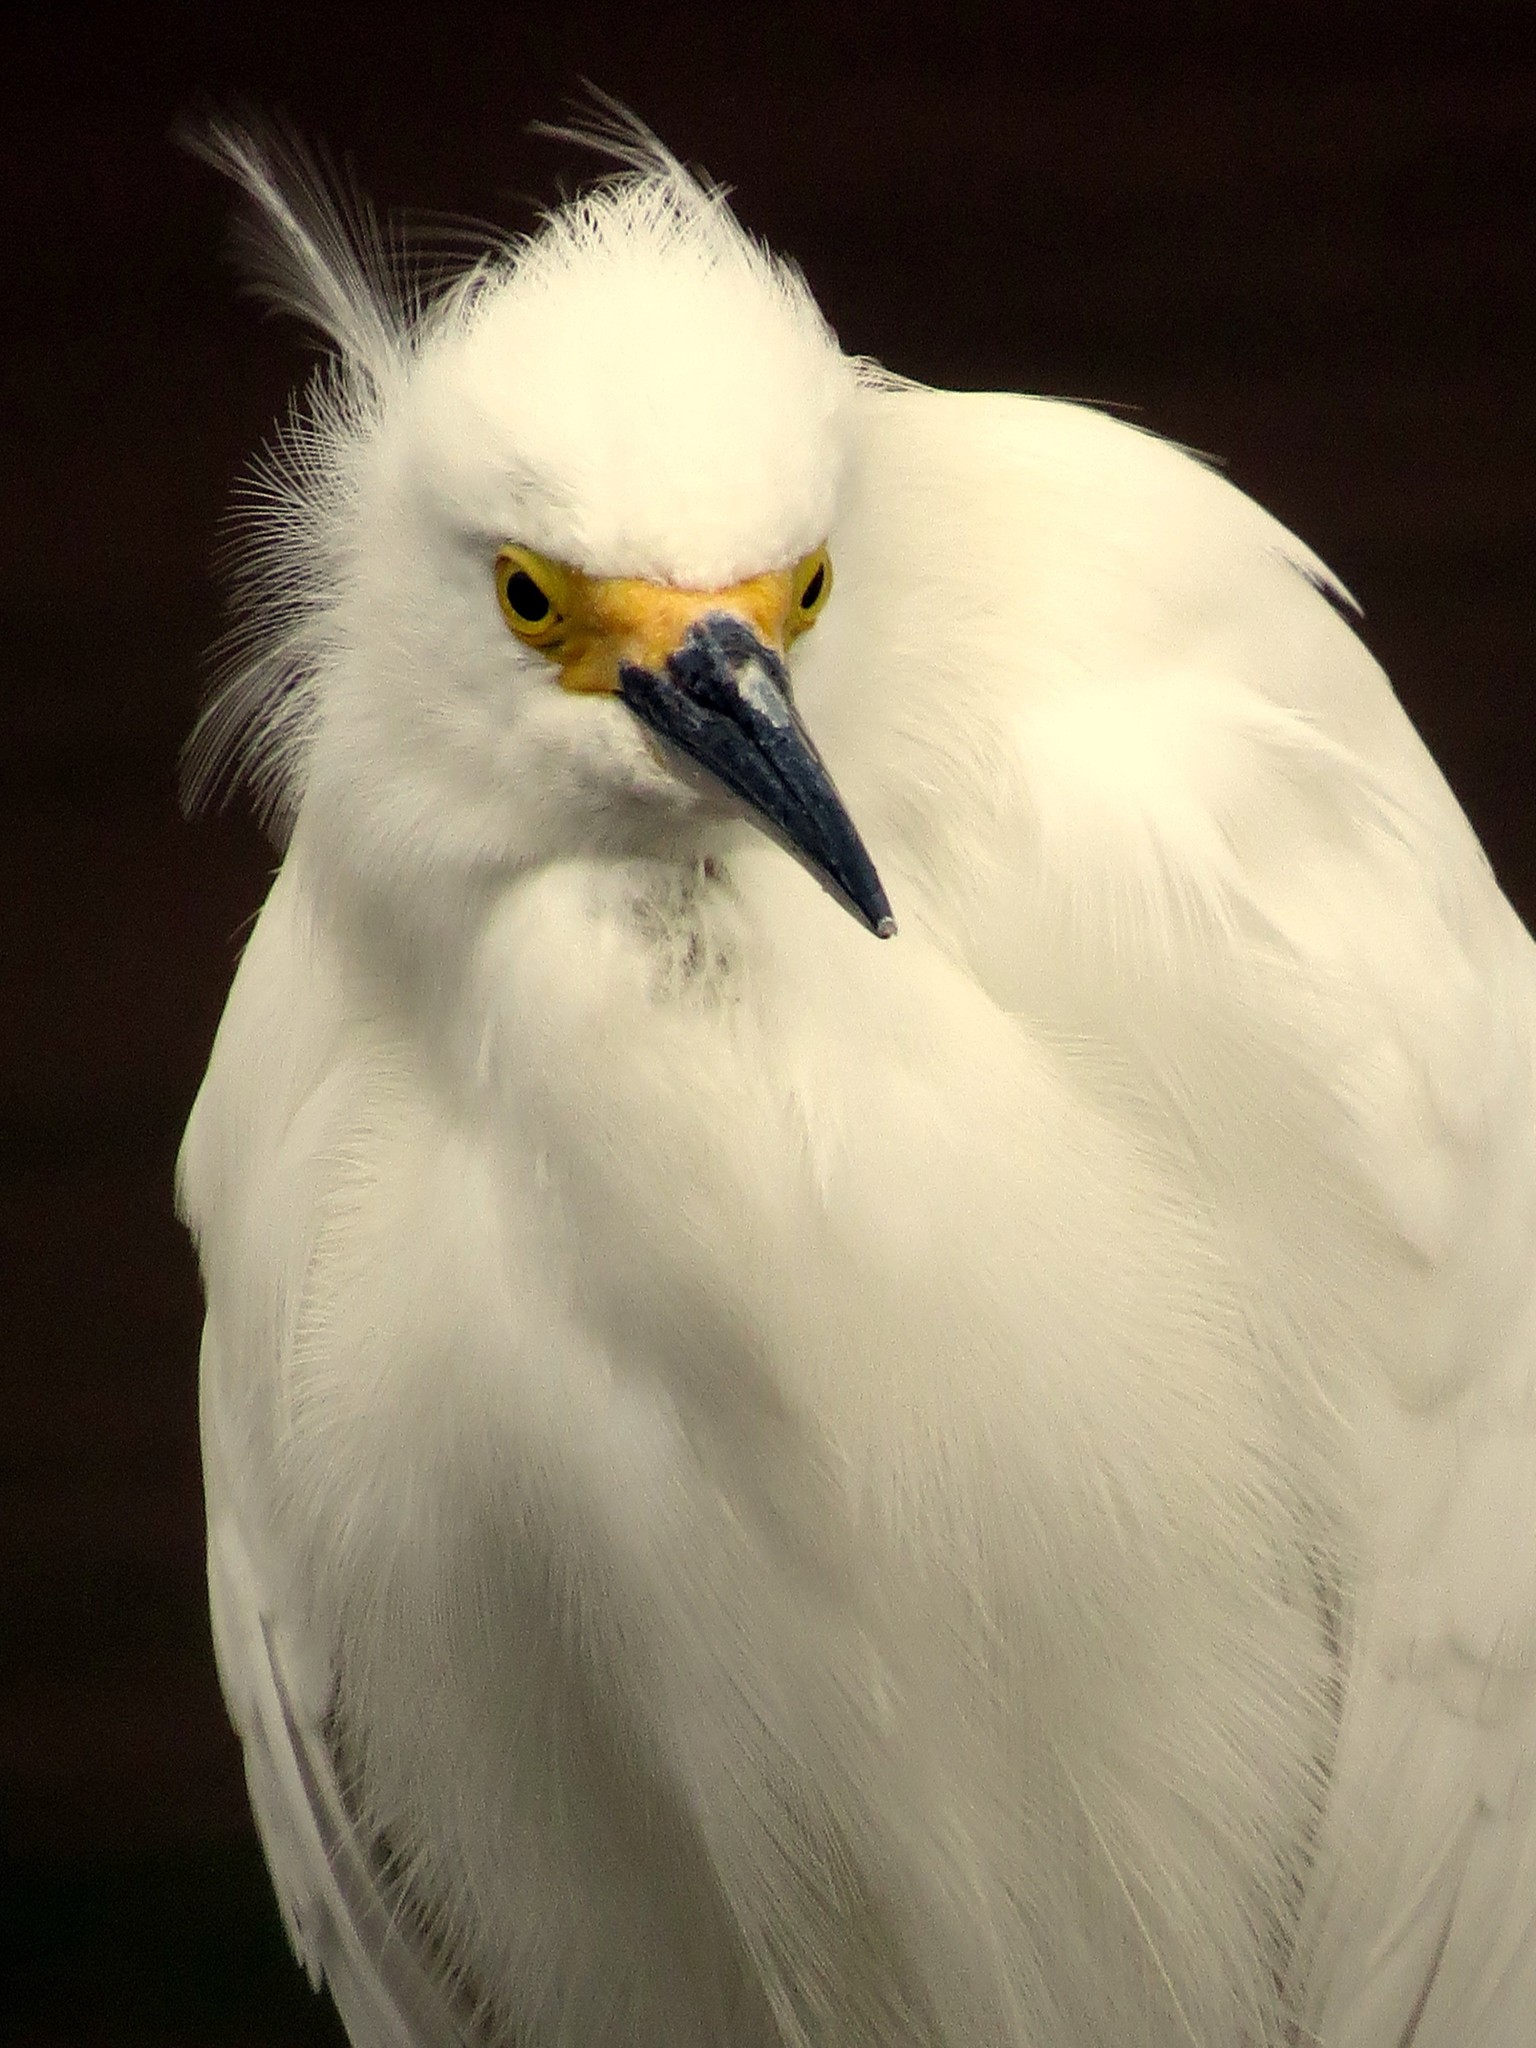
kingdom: Animalia
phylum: Chordata
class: Aves
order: Pelecaniformes
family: Ardeidae
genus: Egretta
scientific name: Egretta thula
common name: Snowy egret
